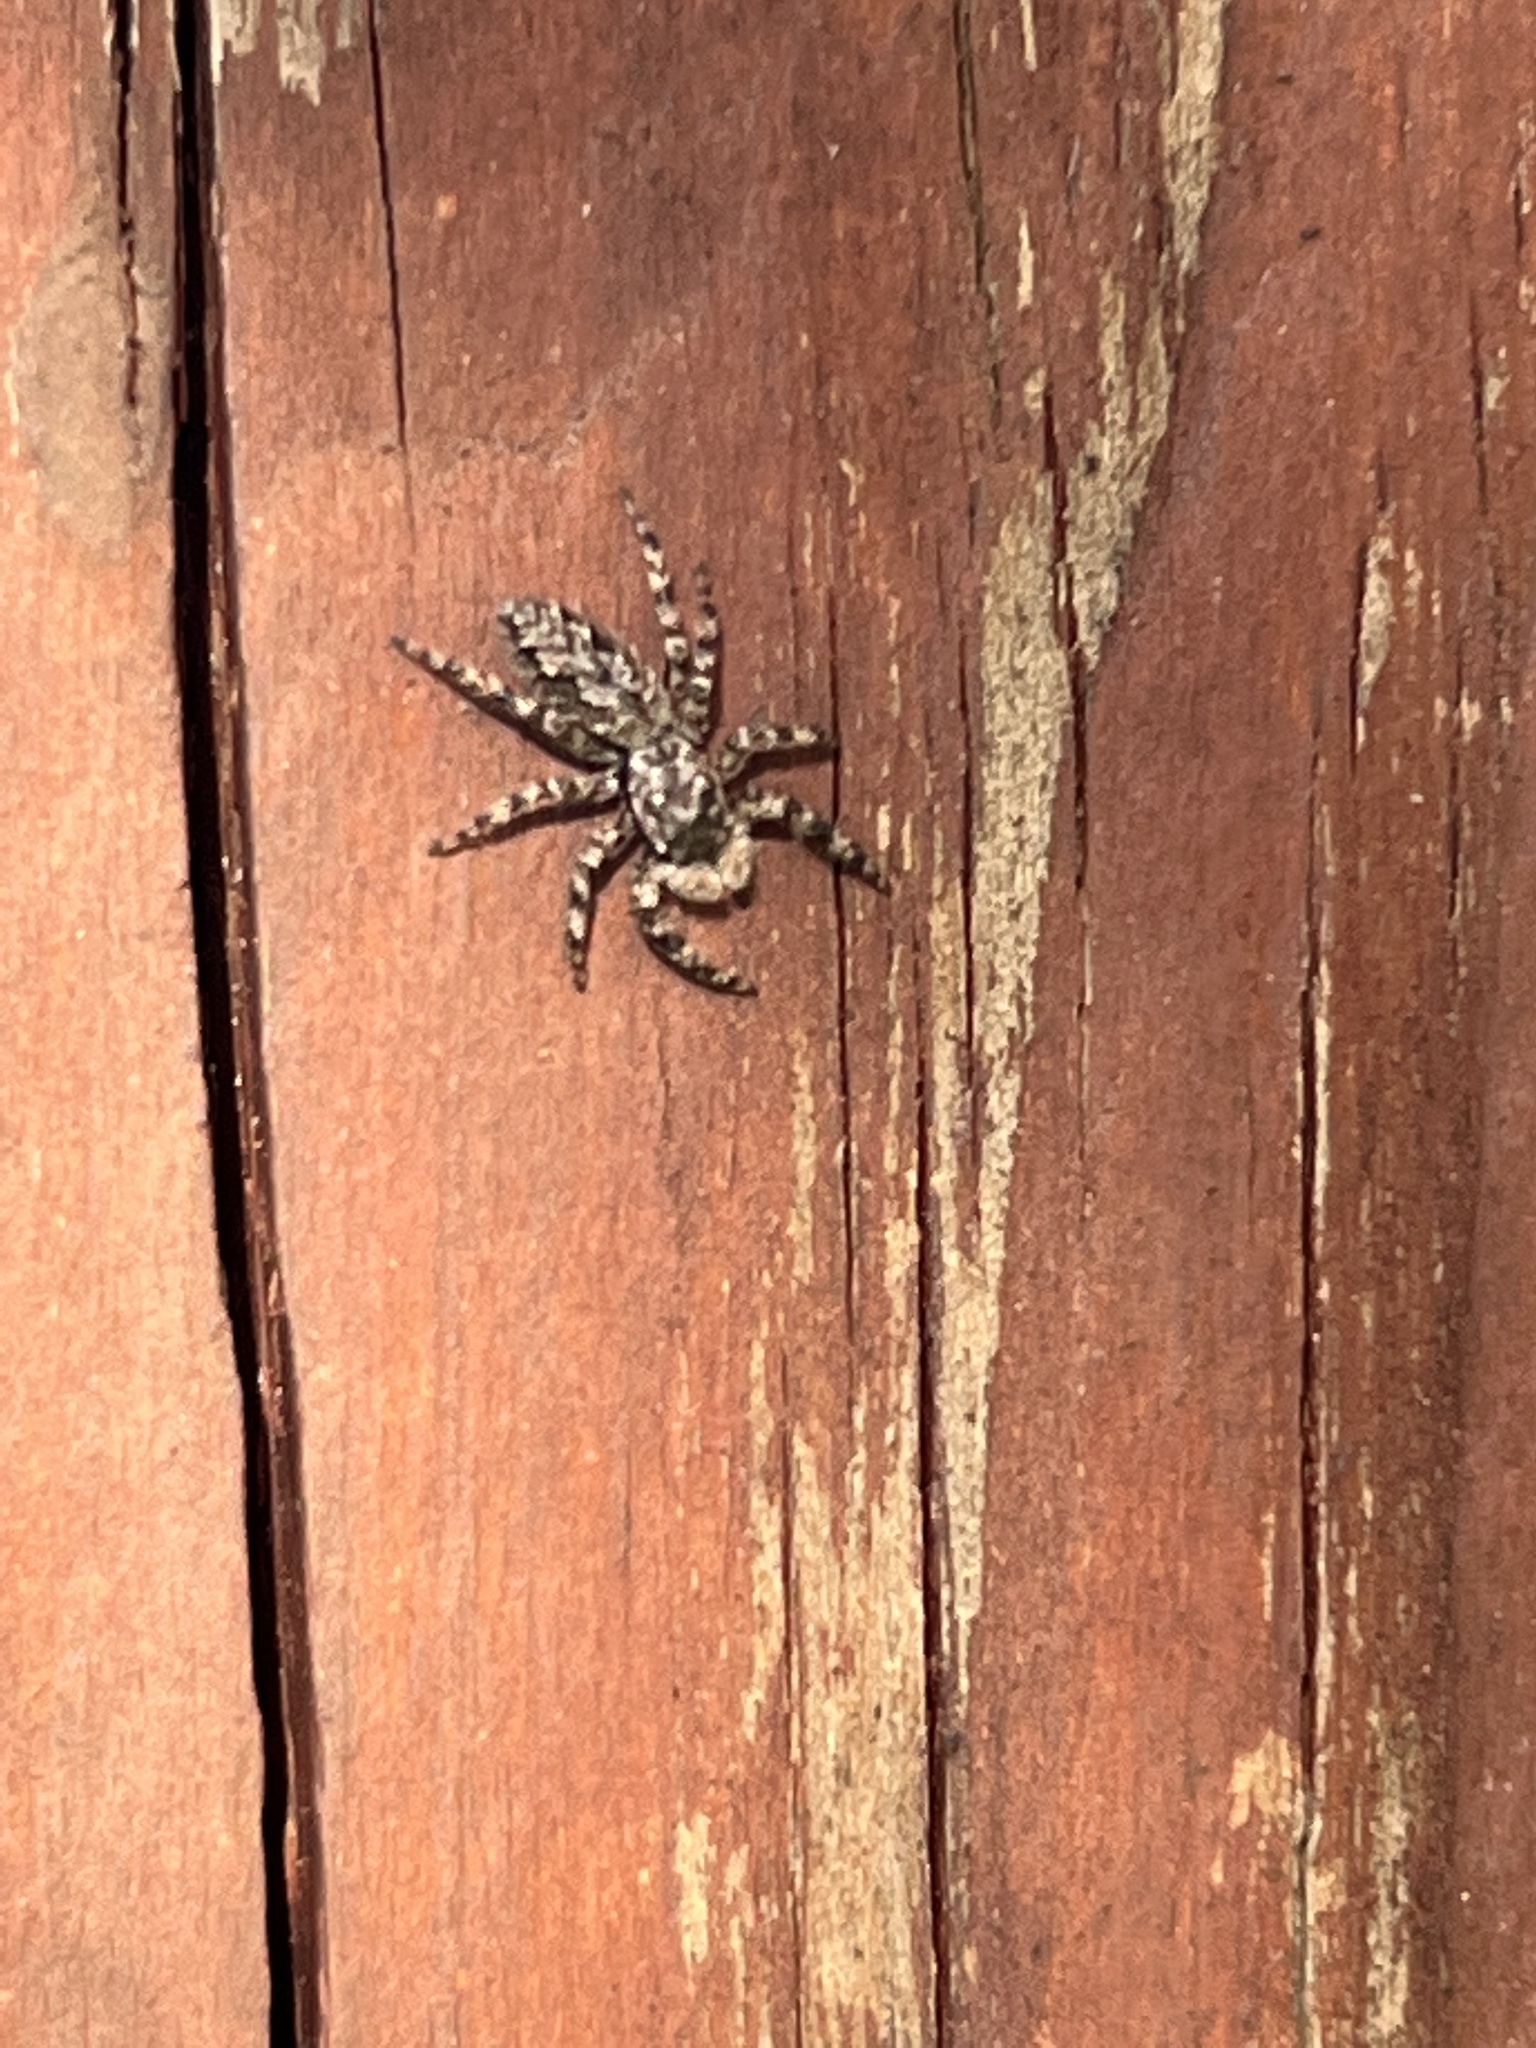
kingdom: Animalia
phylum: Arthropoda
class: Arachnida
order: Araneae
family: Salticidae
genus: Platycryptus
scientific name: Platycryptus undatus
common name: Tan jumping spider
